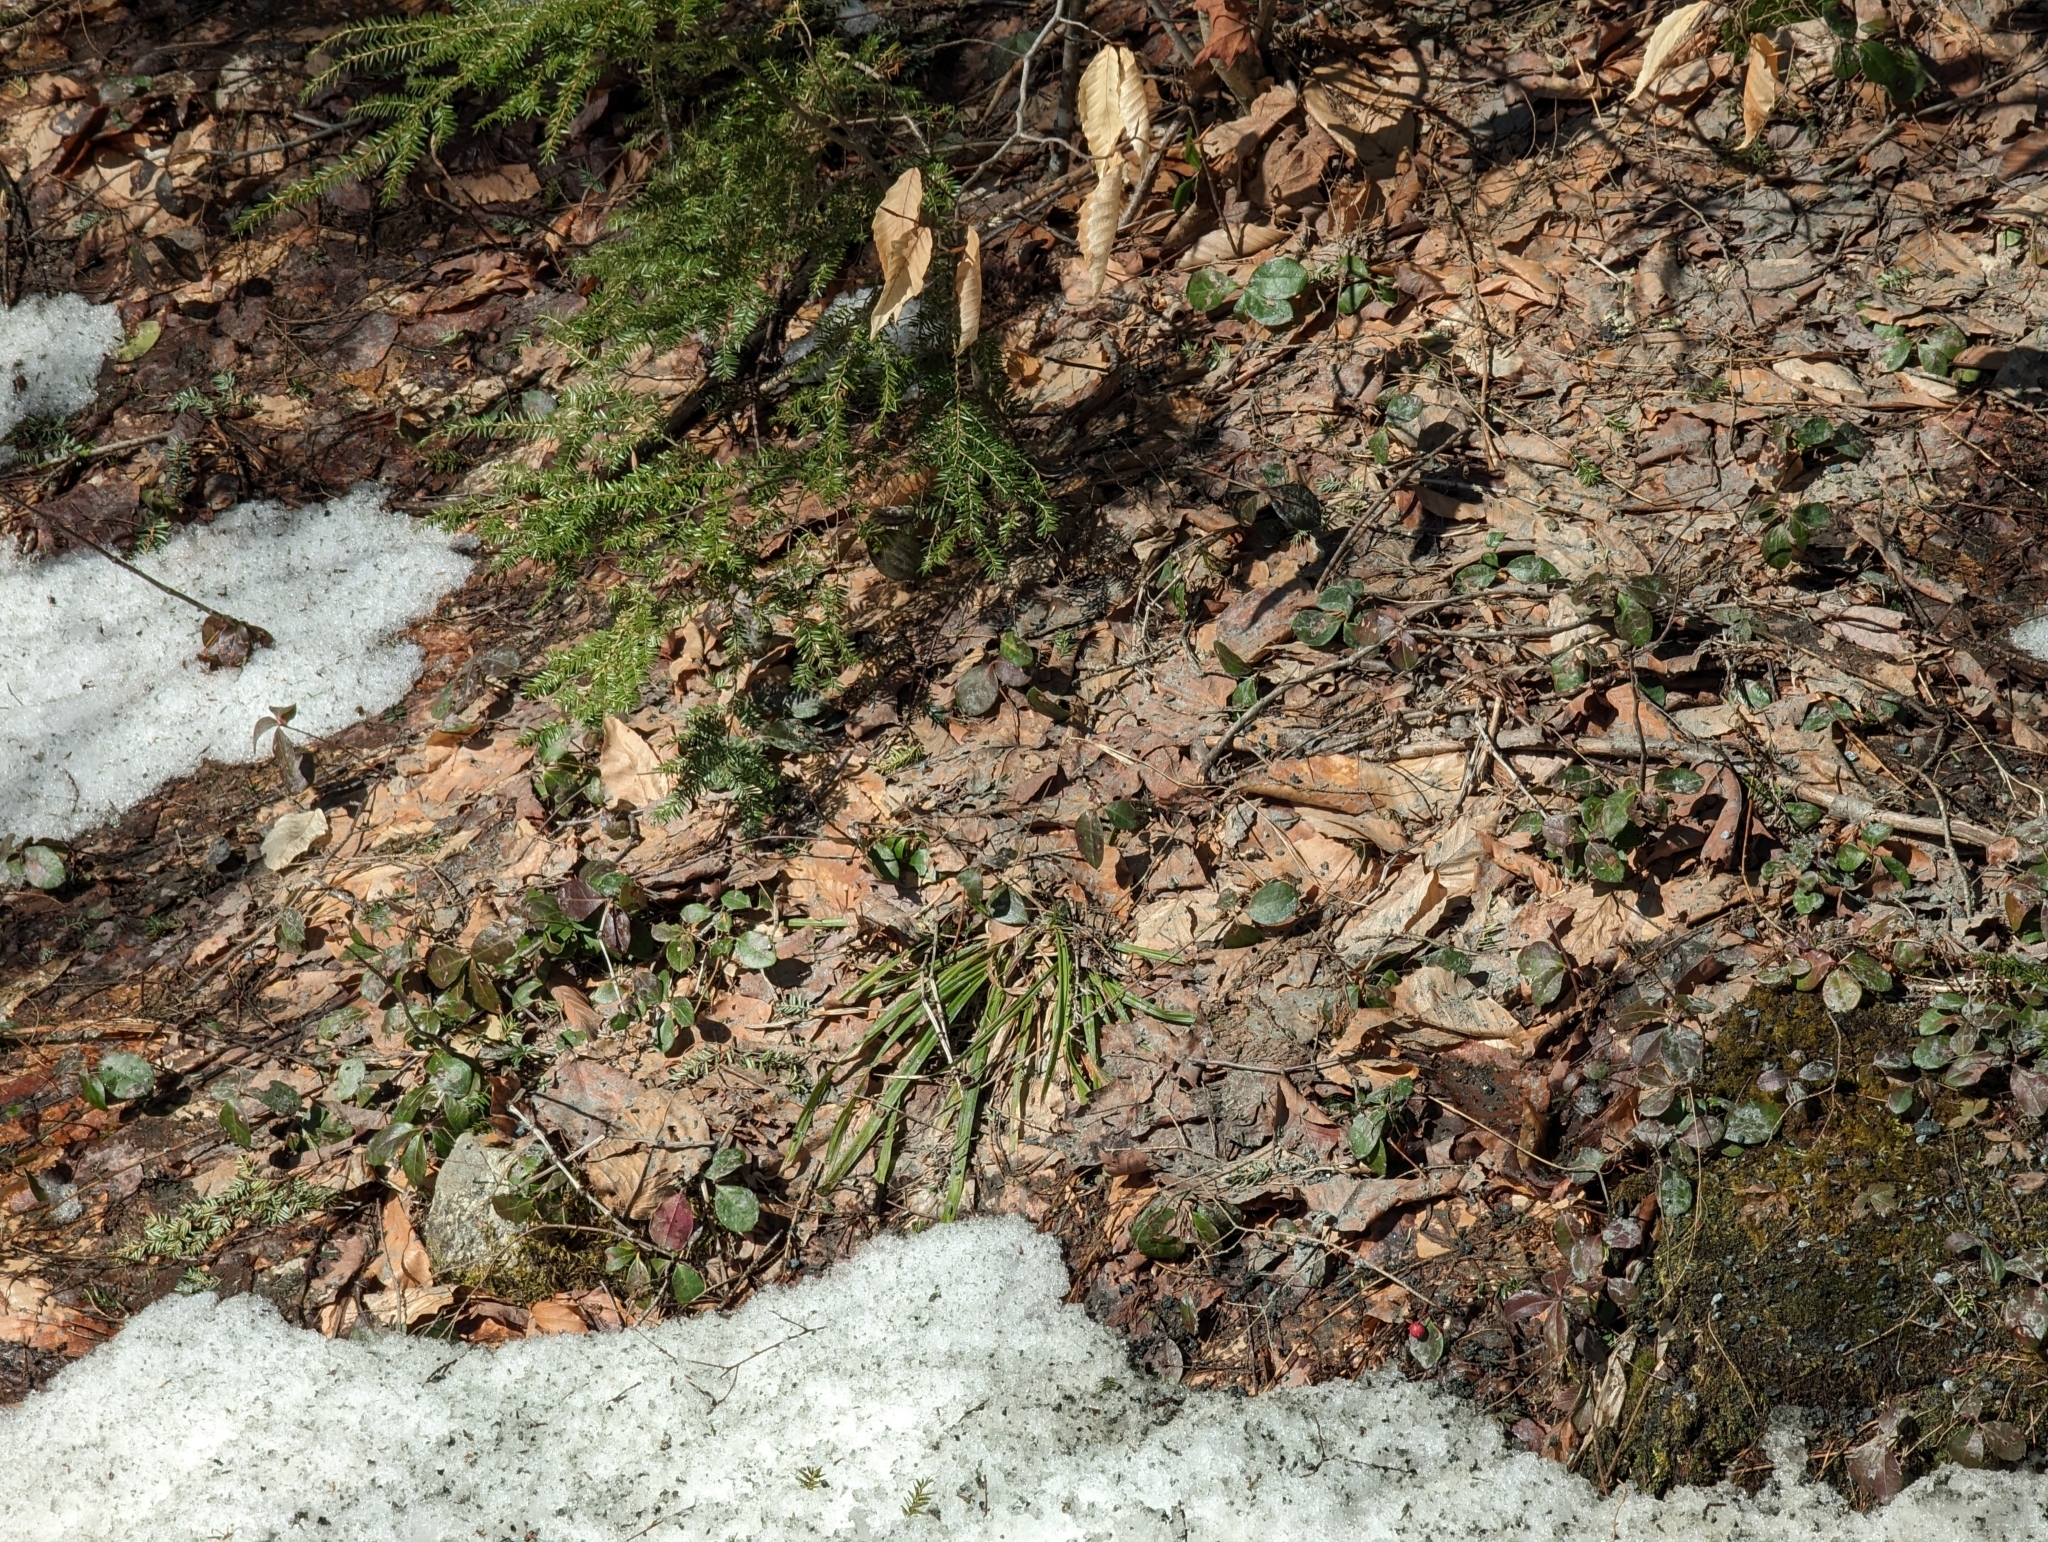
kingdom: Plantae
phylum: Tracheophyta
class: Magnoliopsida
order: Ericales
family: Ericaceae
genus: Gaultheria
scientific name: Gaultheria procumbens
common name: Checkerberry
